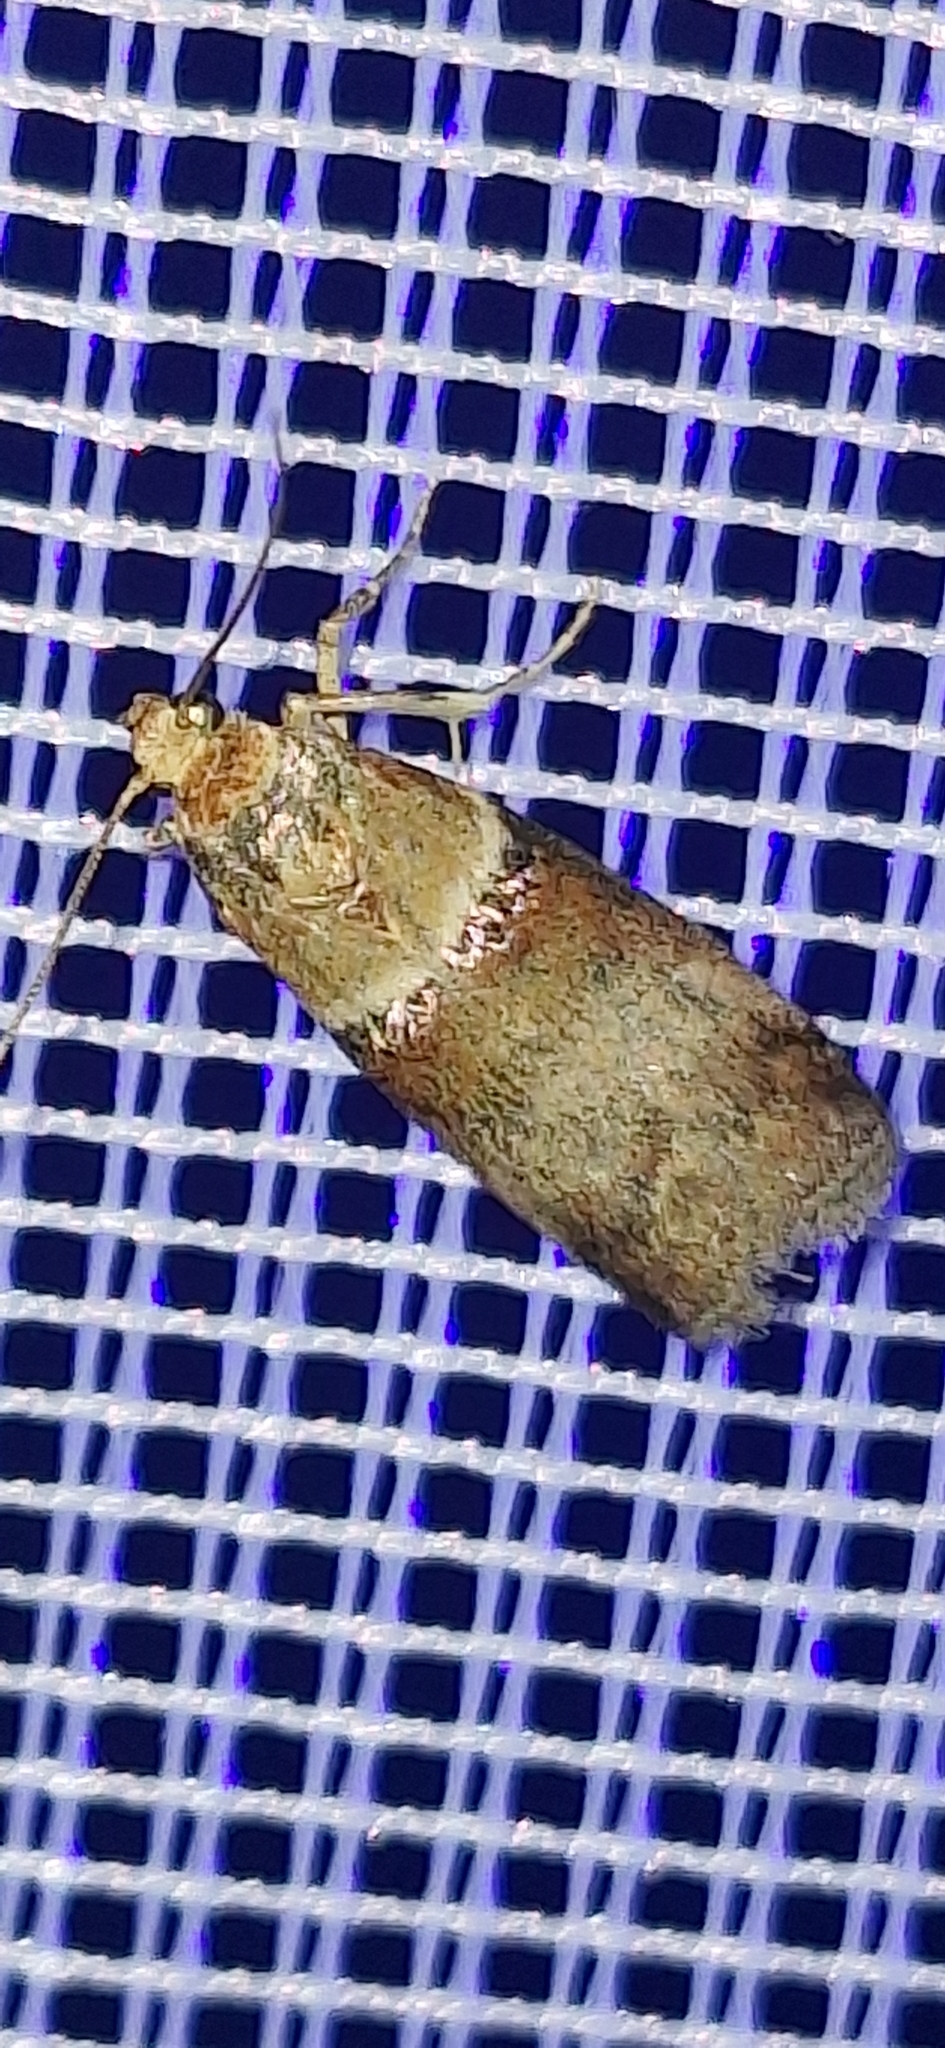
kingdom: Animalia
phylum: Arthropoda
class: Insecta
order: Lepidoptera
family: Pyralidae
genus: Acrobasis
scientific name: Acrobasis tumidana
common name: Scarce oak knot-horn
